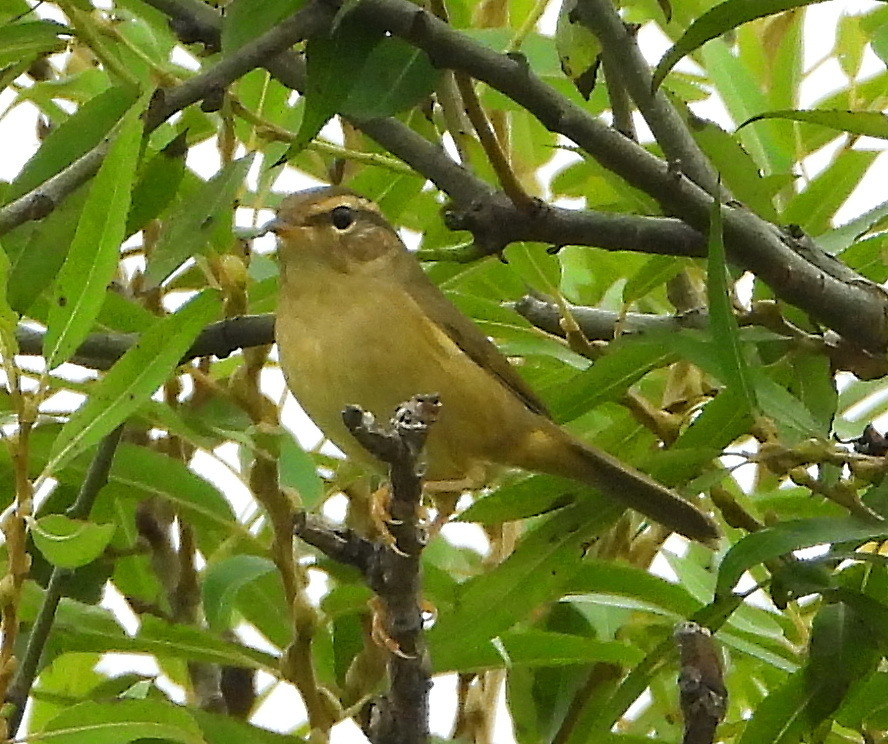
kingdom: Animalia
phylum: Chordata
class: Aves
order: Passeriformes
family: Phylloscopidae
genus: Phylloscopus
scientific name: Phylloscopus schwarzi
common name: Radde's warbler
